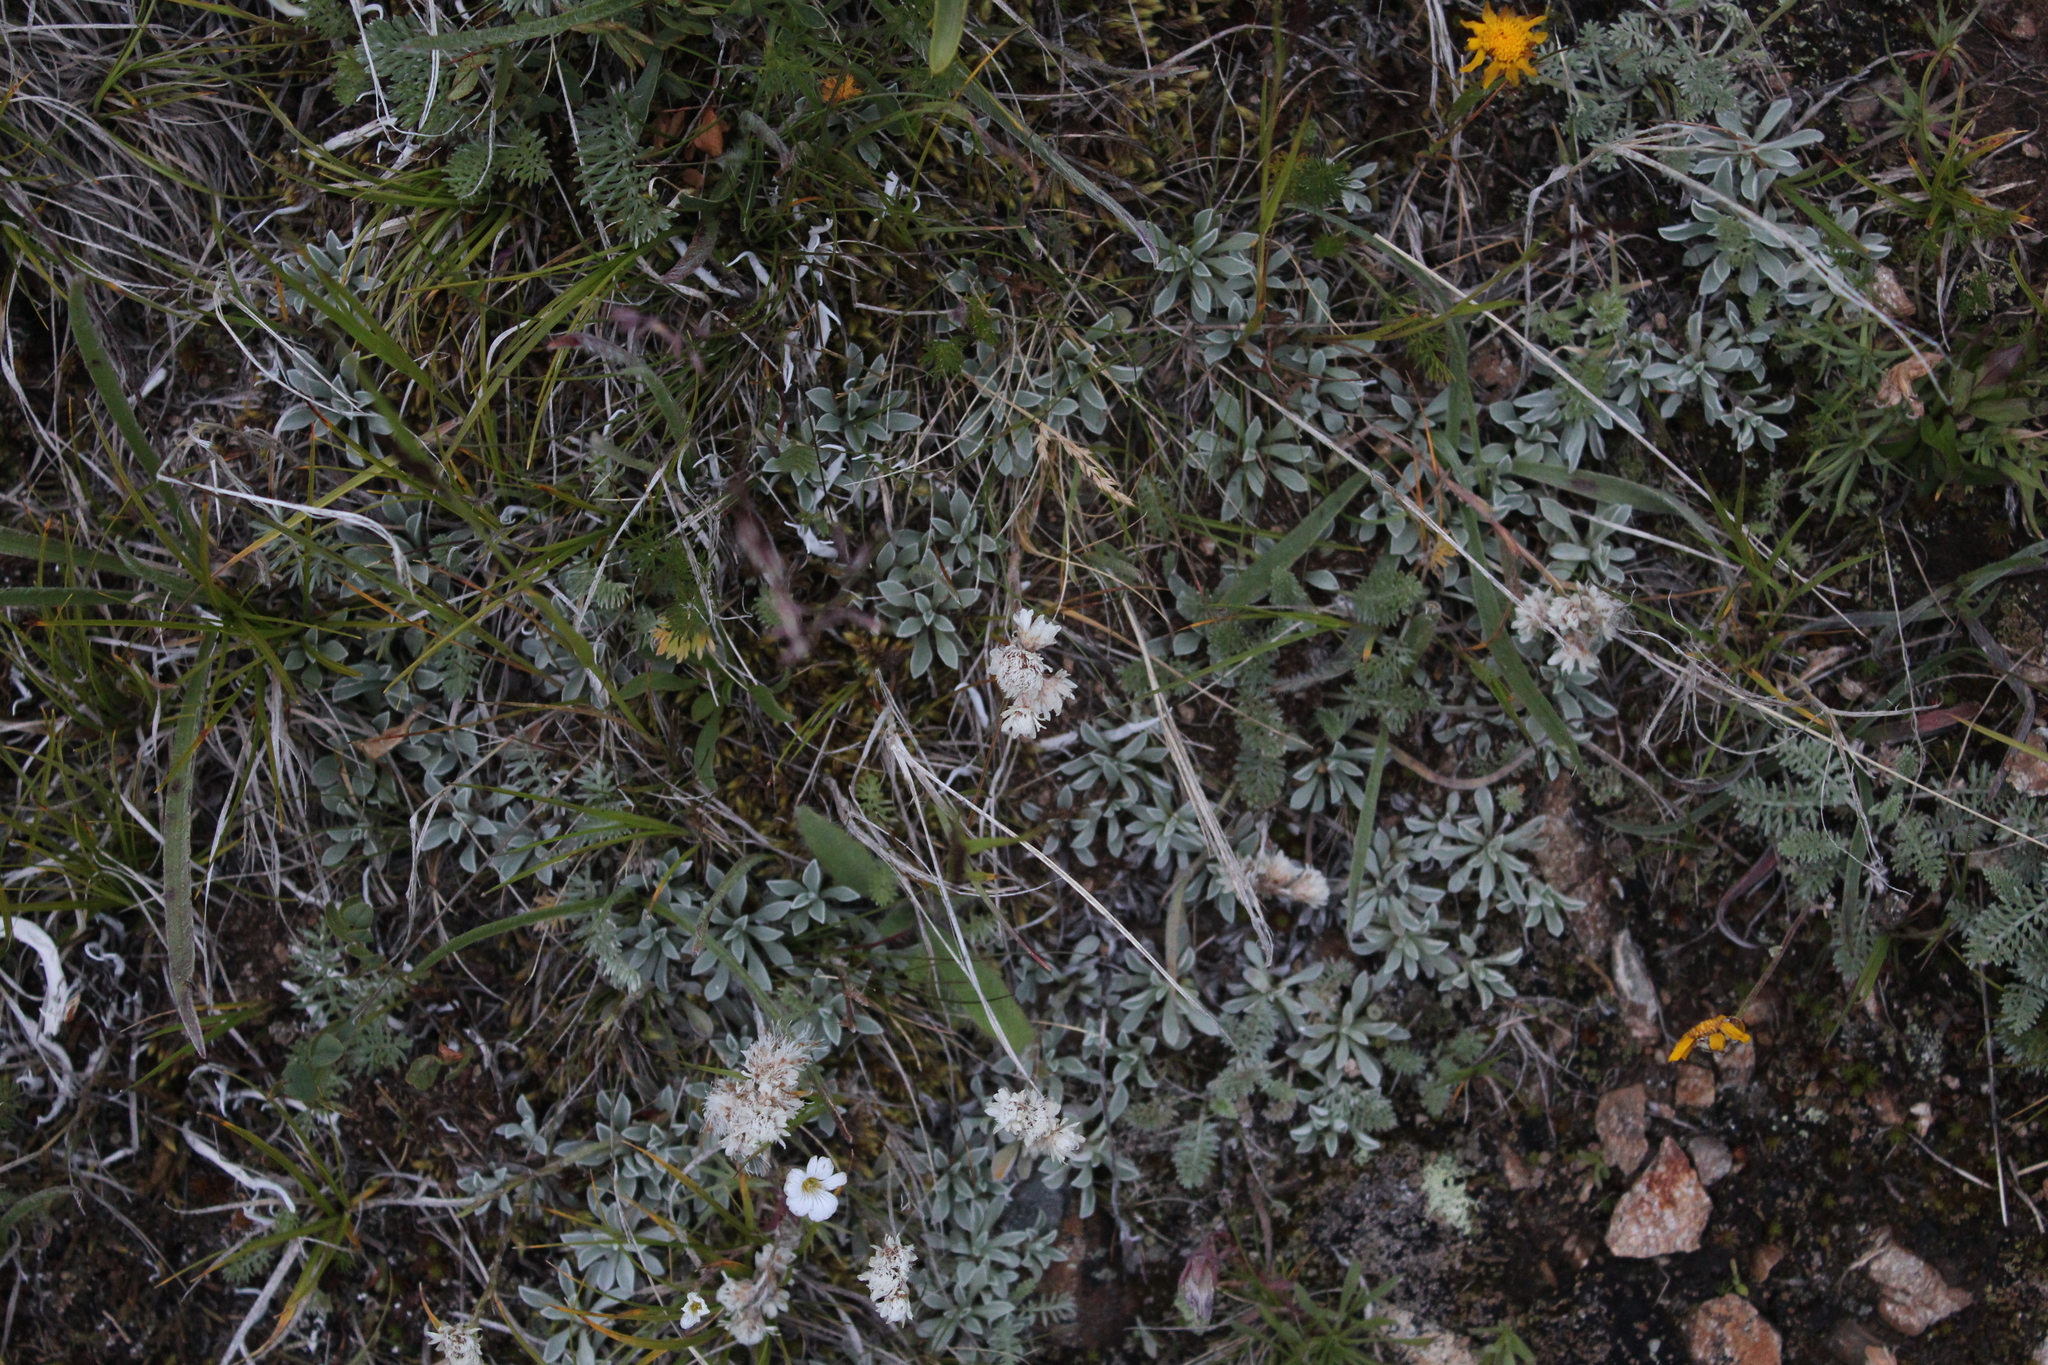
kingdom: Plantae
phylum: Tracheophyta
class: Magnoliopsida
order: Asterales
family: Asteraceae
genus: Antennaria
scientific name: Antennaria caucasica
